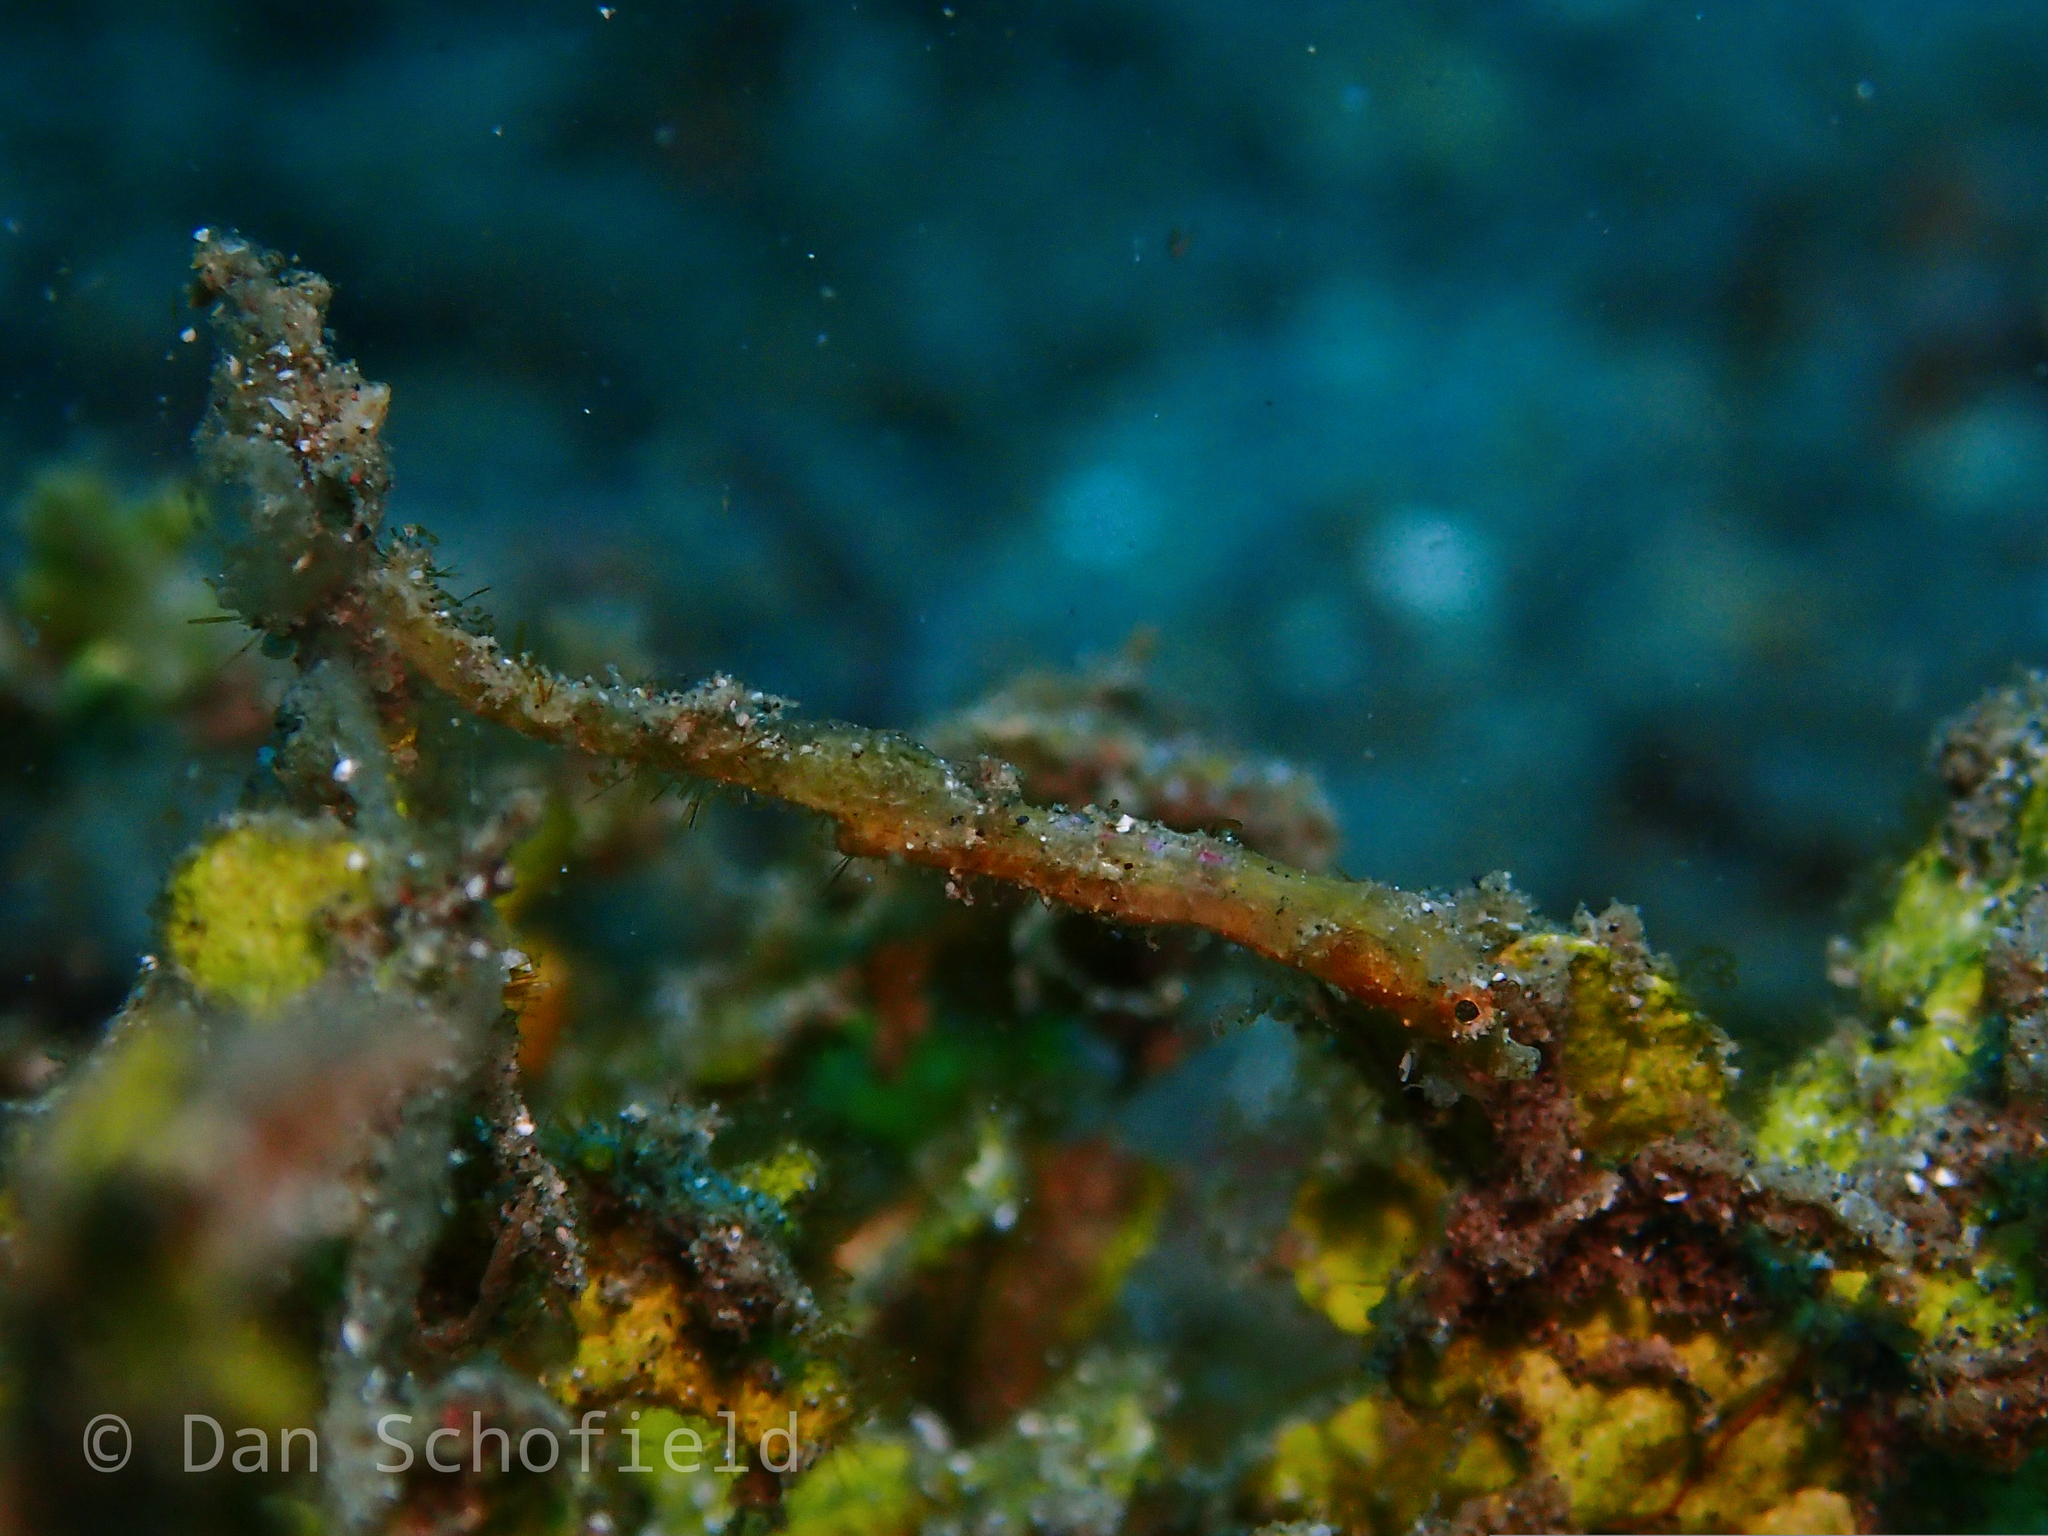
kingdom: Animalia
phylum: Chordata
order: Syngnathiformes
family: Syngnathidae
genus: Acentronura
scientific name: Acentronura breviperula
